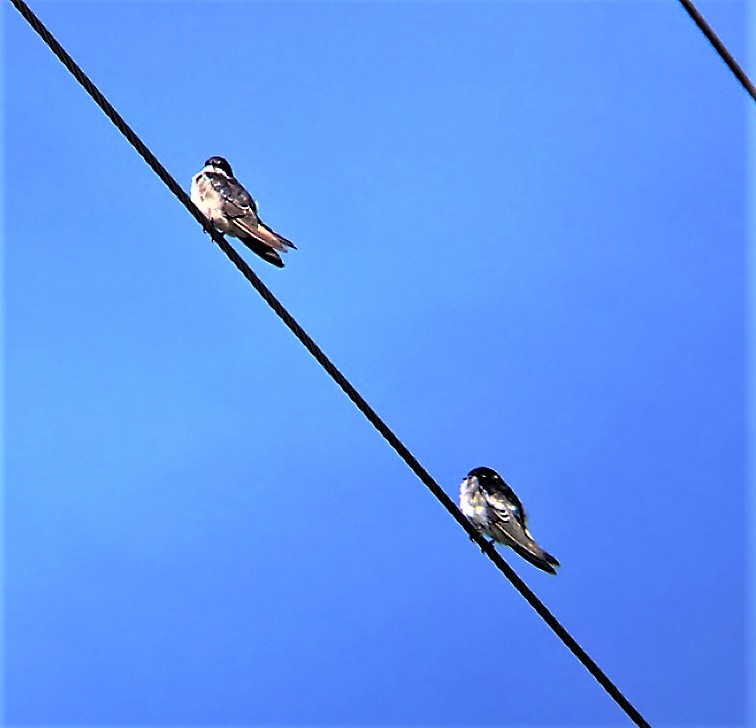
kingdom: Animalia
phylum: Chordata
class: Aves
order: Passeriformes
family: Hirundinidae
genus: Tachycineta
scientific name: Tachycineta bicolor
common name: Tree swallow
